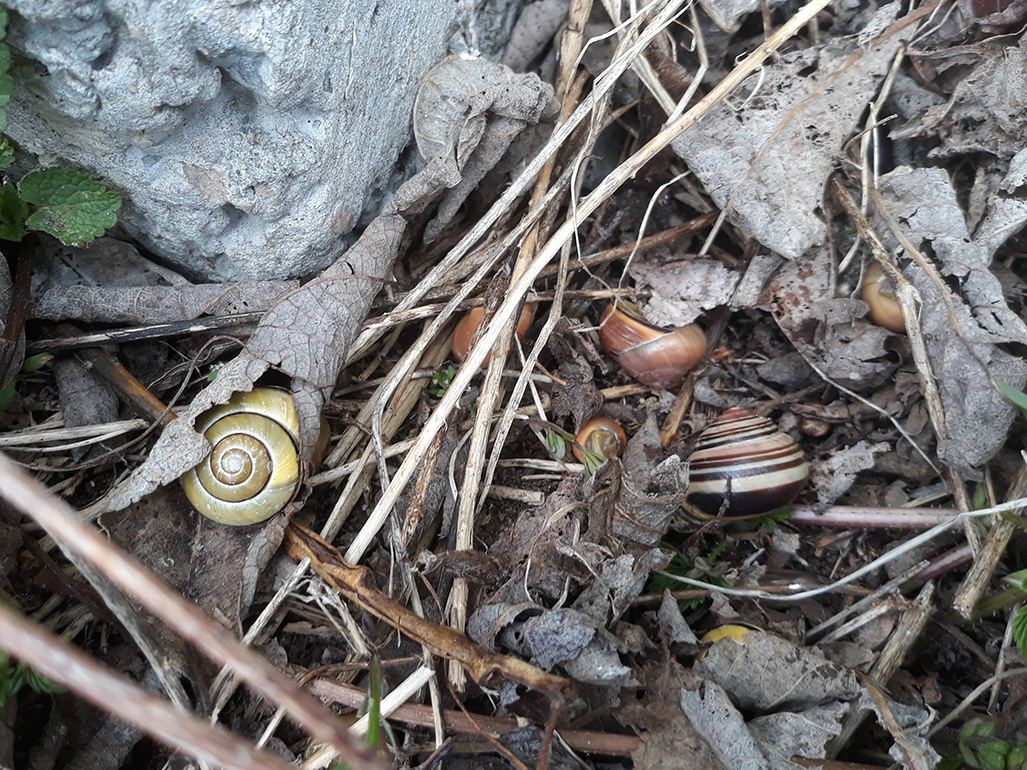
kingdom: Animalia
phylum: Mollusca
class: Gastropoda
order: Stylommatophora
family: Helicidae
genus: Cepaea
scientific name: Cepaea nemoralis
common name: Grovesnail
